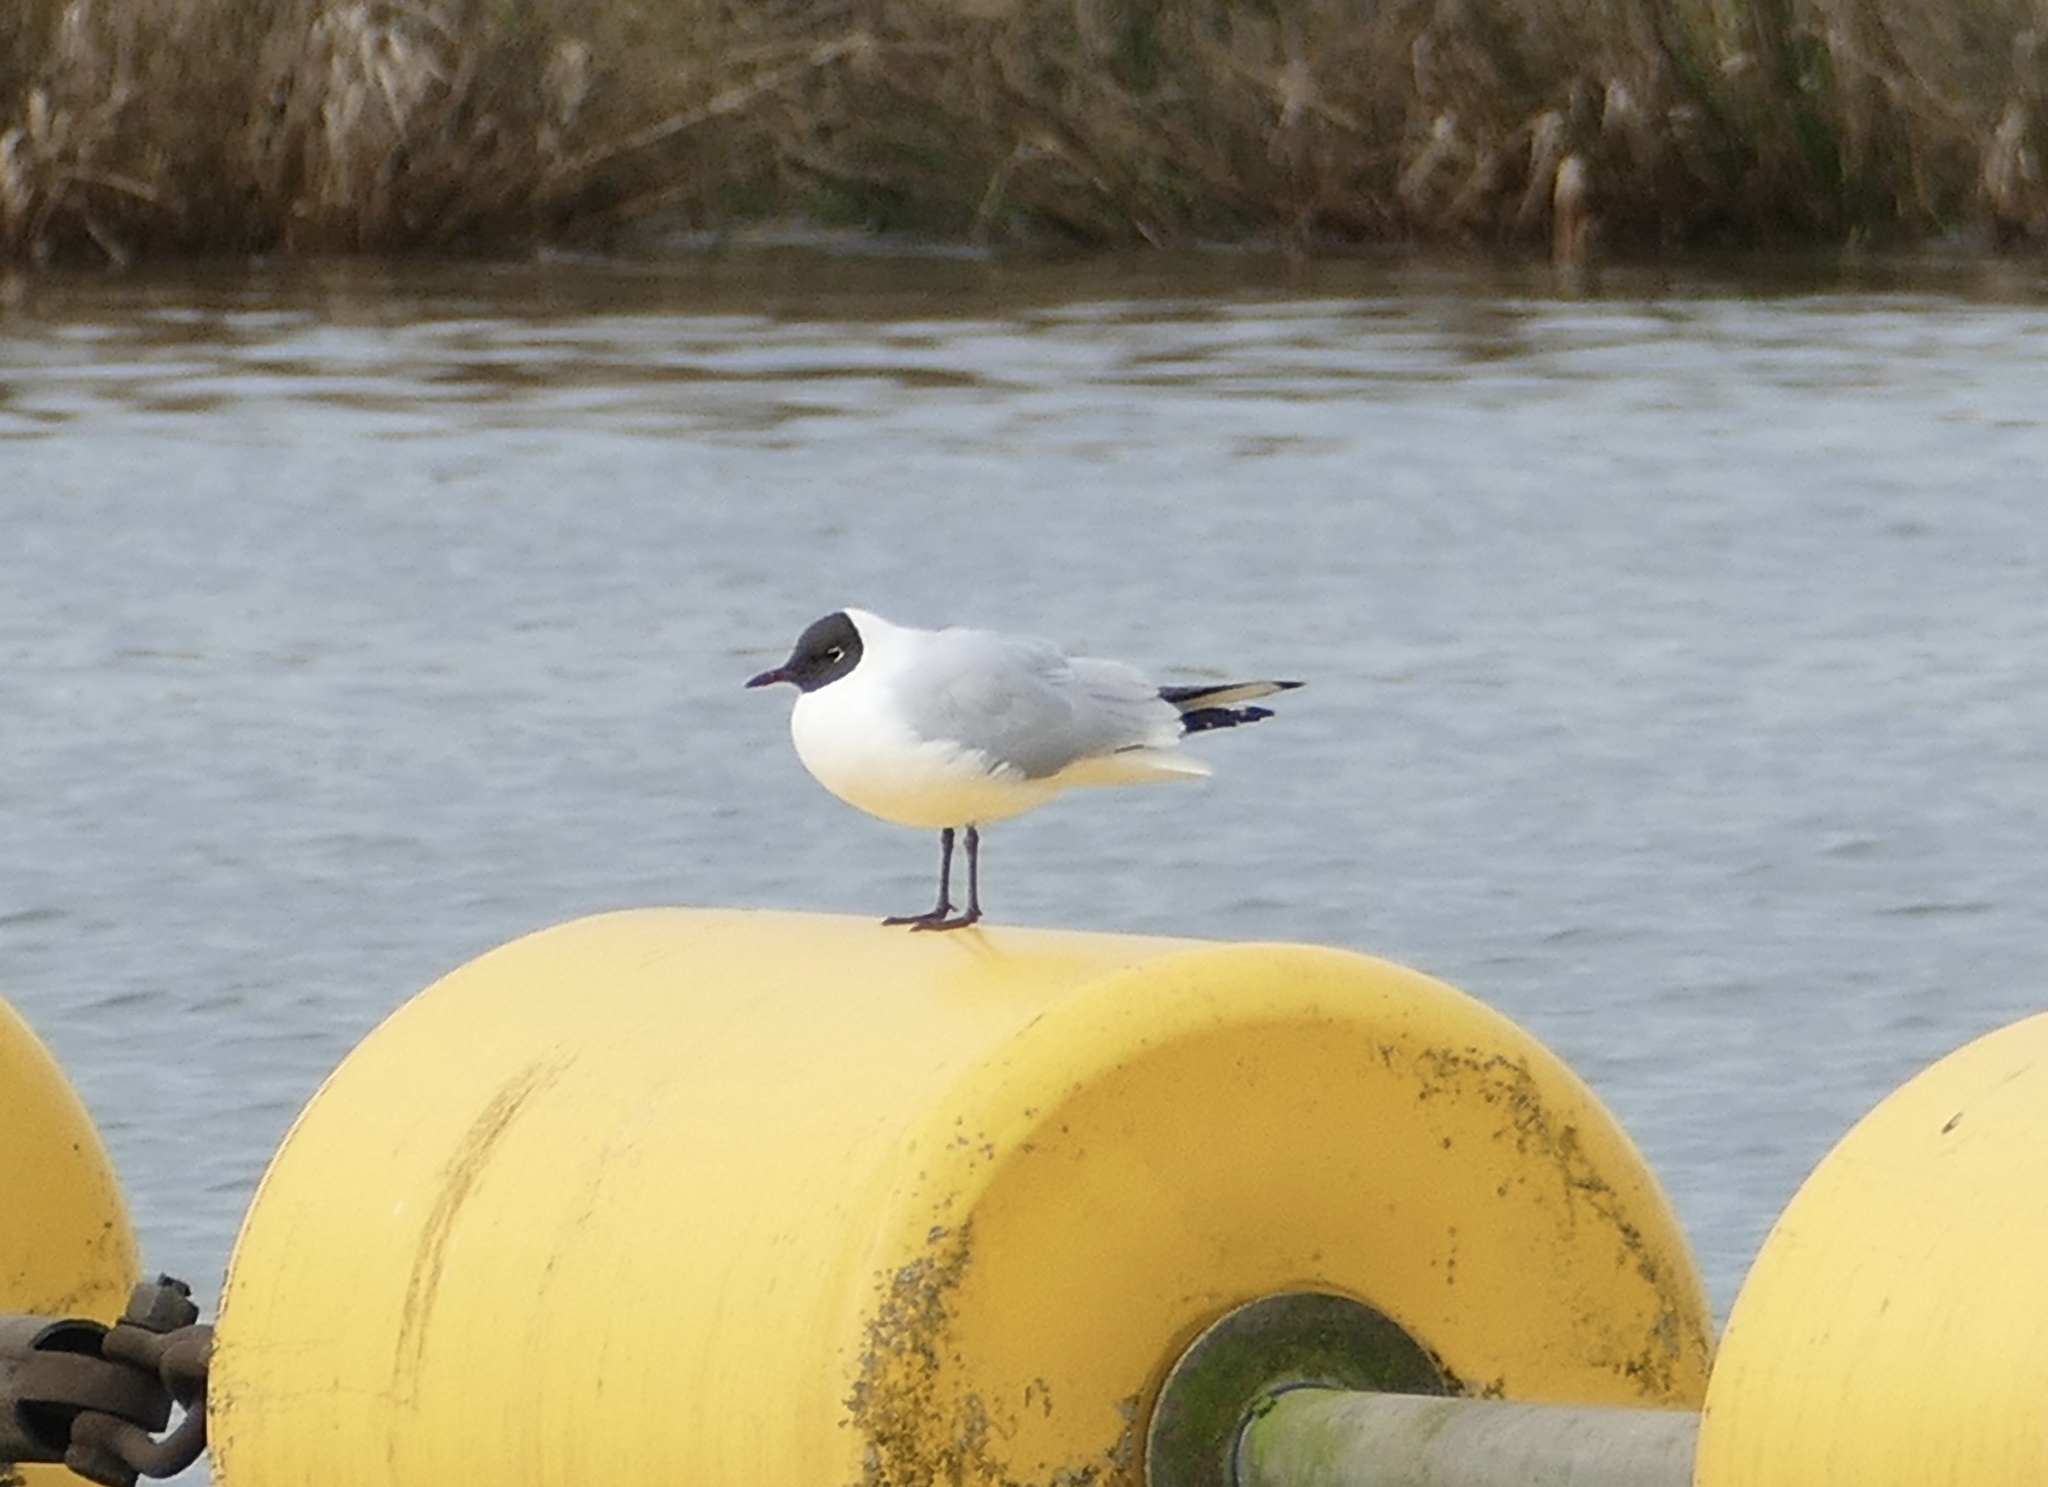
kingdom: Animalia
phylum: Chordata
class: Aves
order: Charadriiformes
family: Laridae
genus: Chroicocephalus
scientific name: Chroicocephalus ridibundus
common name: Black-headed gull
